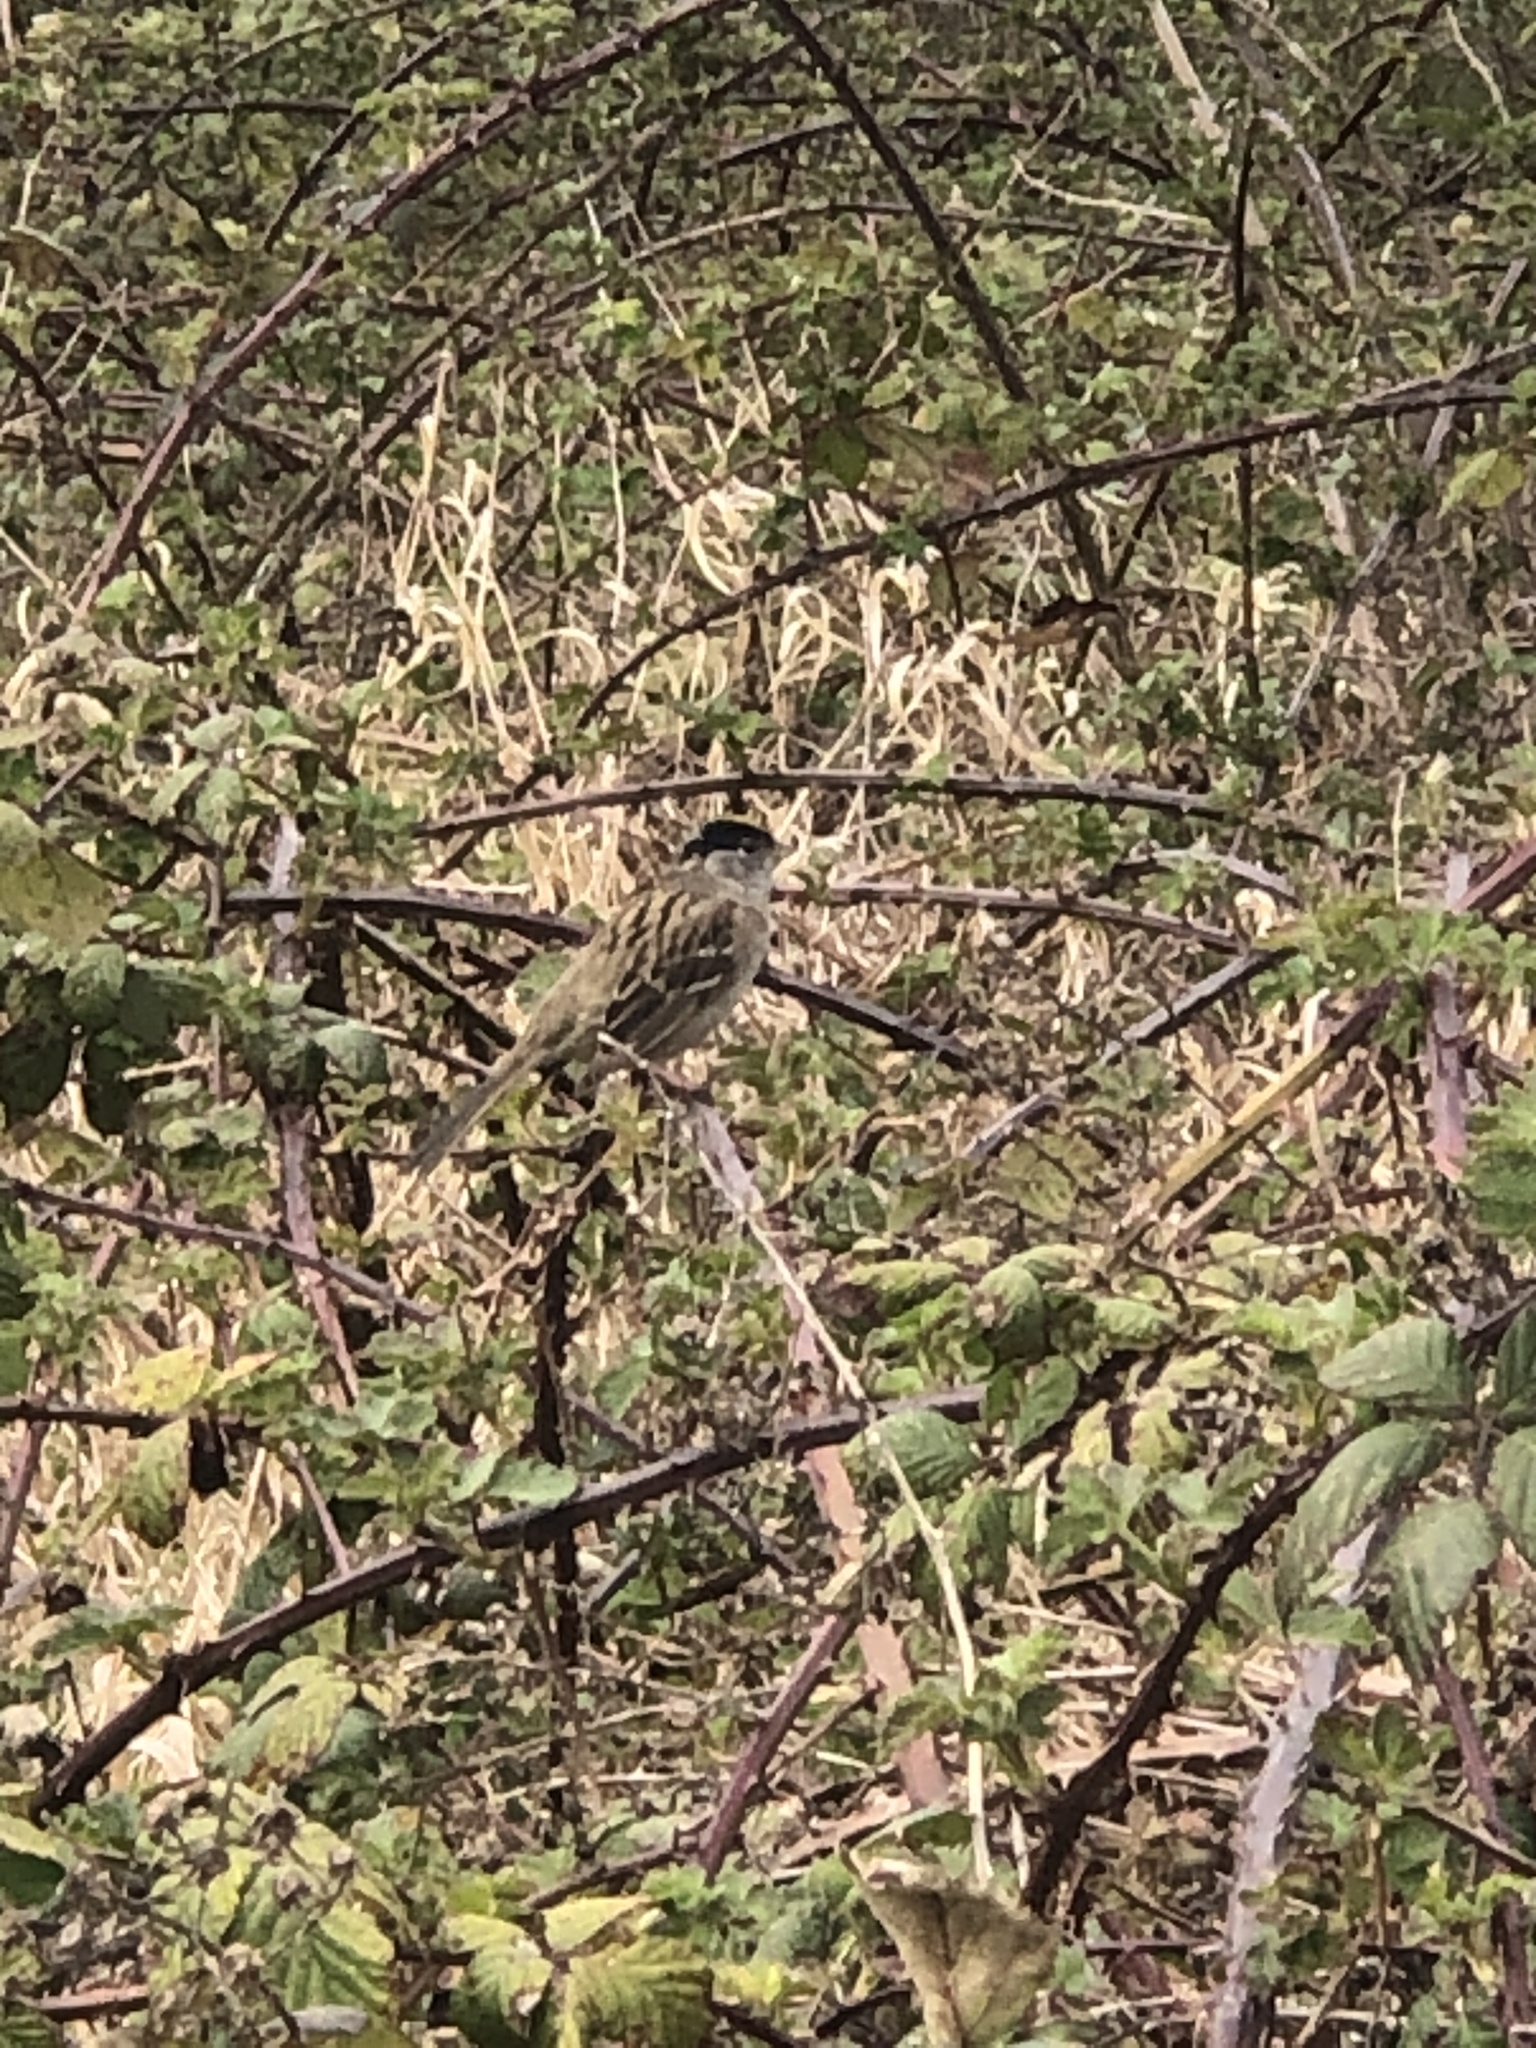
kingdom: Animalia
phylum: Chordata
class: Aves
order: Passeriformes
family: Passerellidae
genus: Zonotrichia
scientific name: Zonotrichia atricapilla
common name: Golden-crowned sparrow
